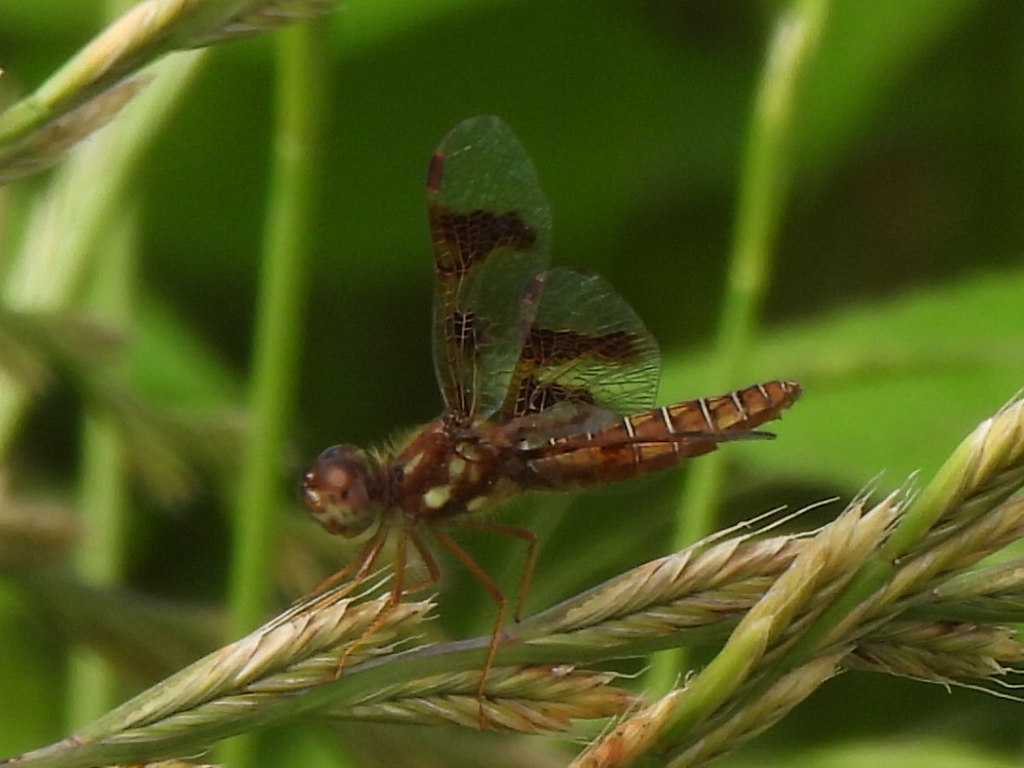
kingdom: Animalia
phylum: Arthropoda
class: Insecta
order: Odonata
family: Libellulidae
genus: Perithemis
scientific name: Perithemis tenera
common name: Eastern amberwing
